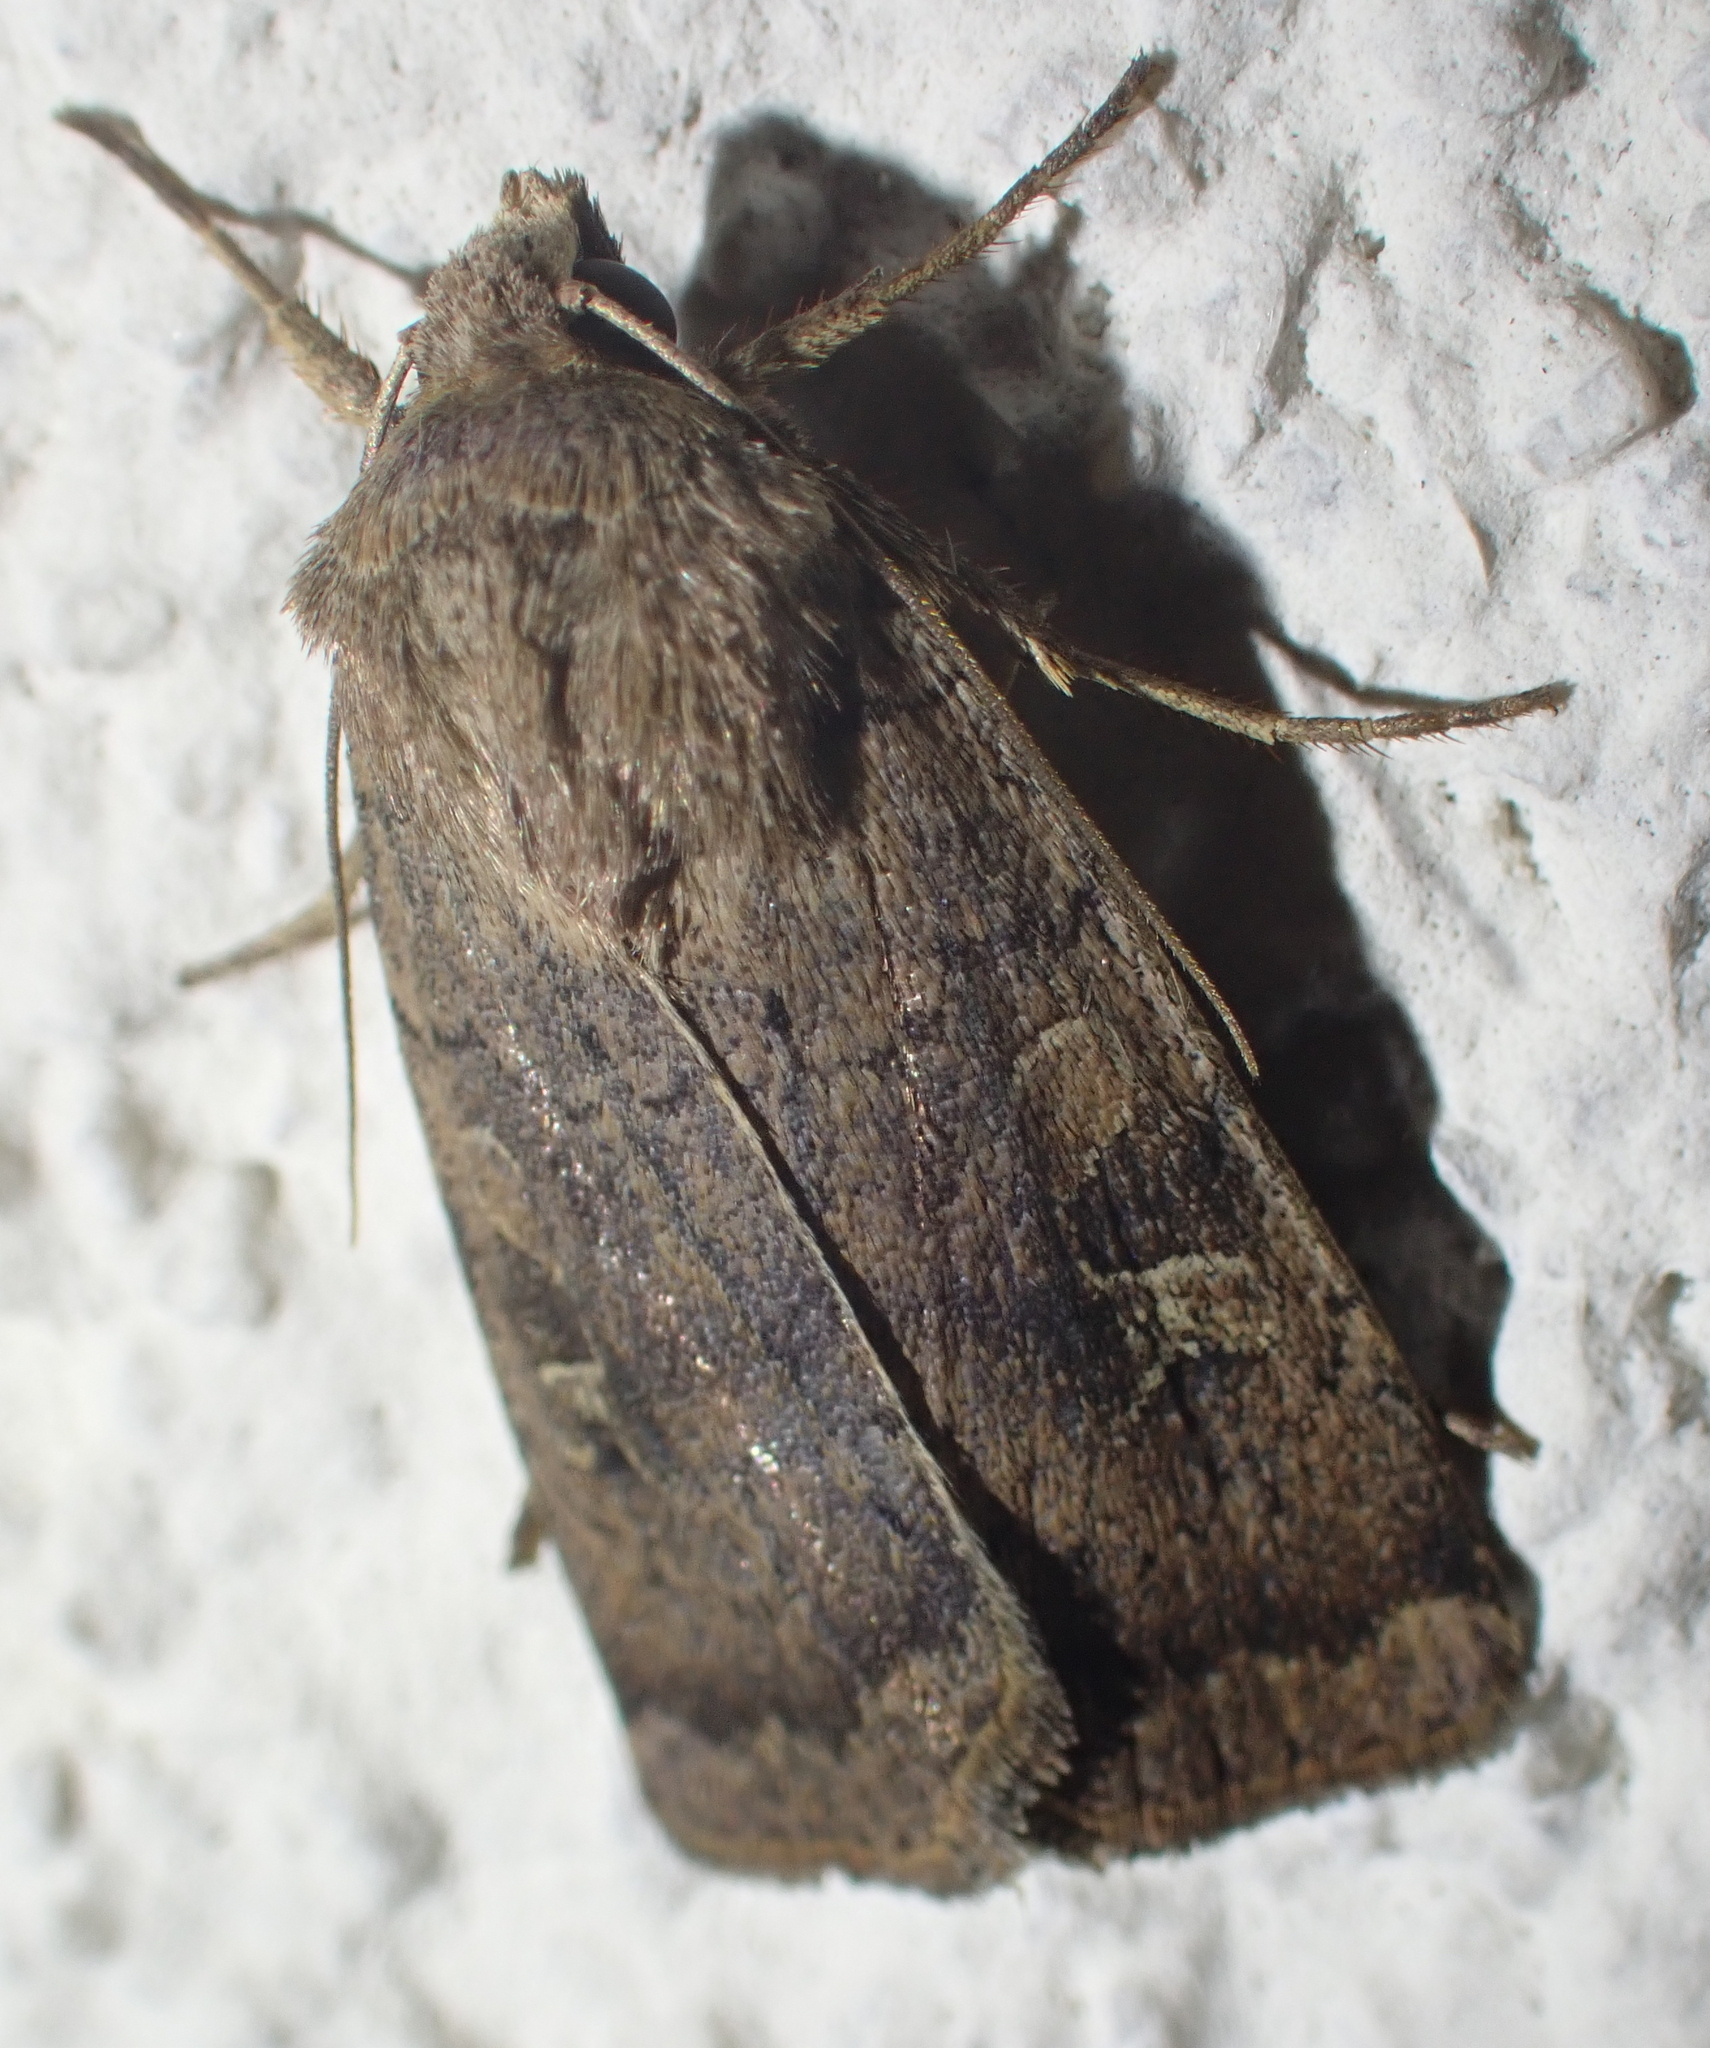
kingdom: Animalia
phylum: Arthropoda
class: Insecta
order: Lepidoptera
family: Noctuidae
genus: Xestia
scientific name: Xestia xanthographa
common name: Square-spot rustic
